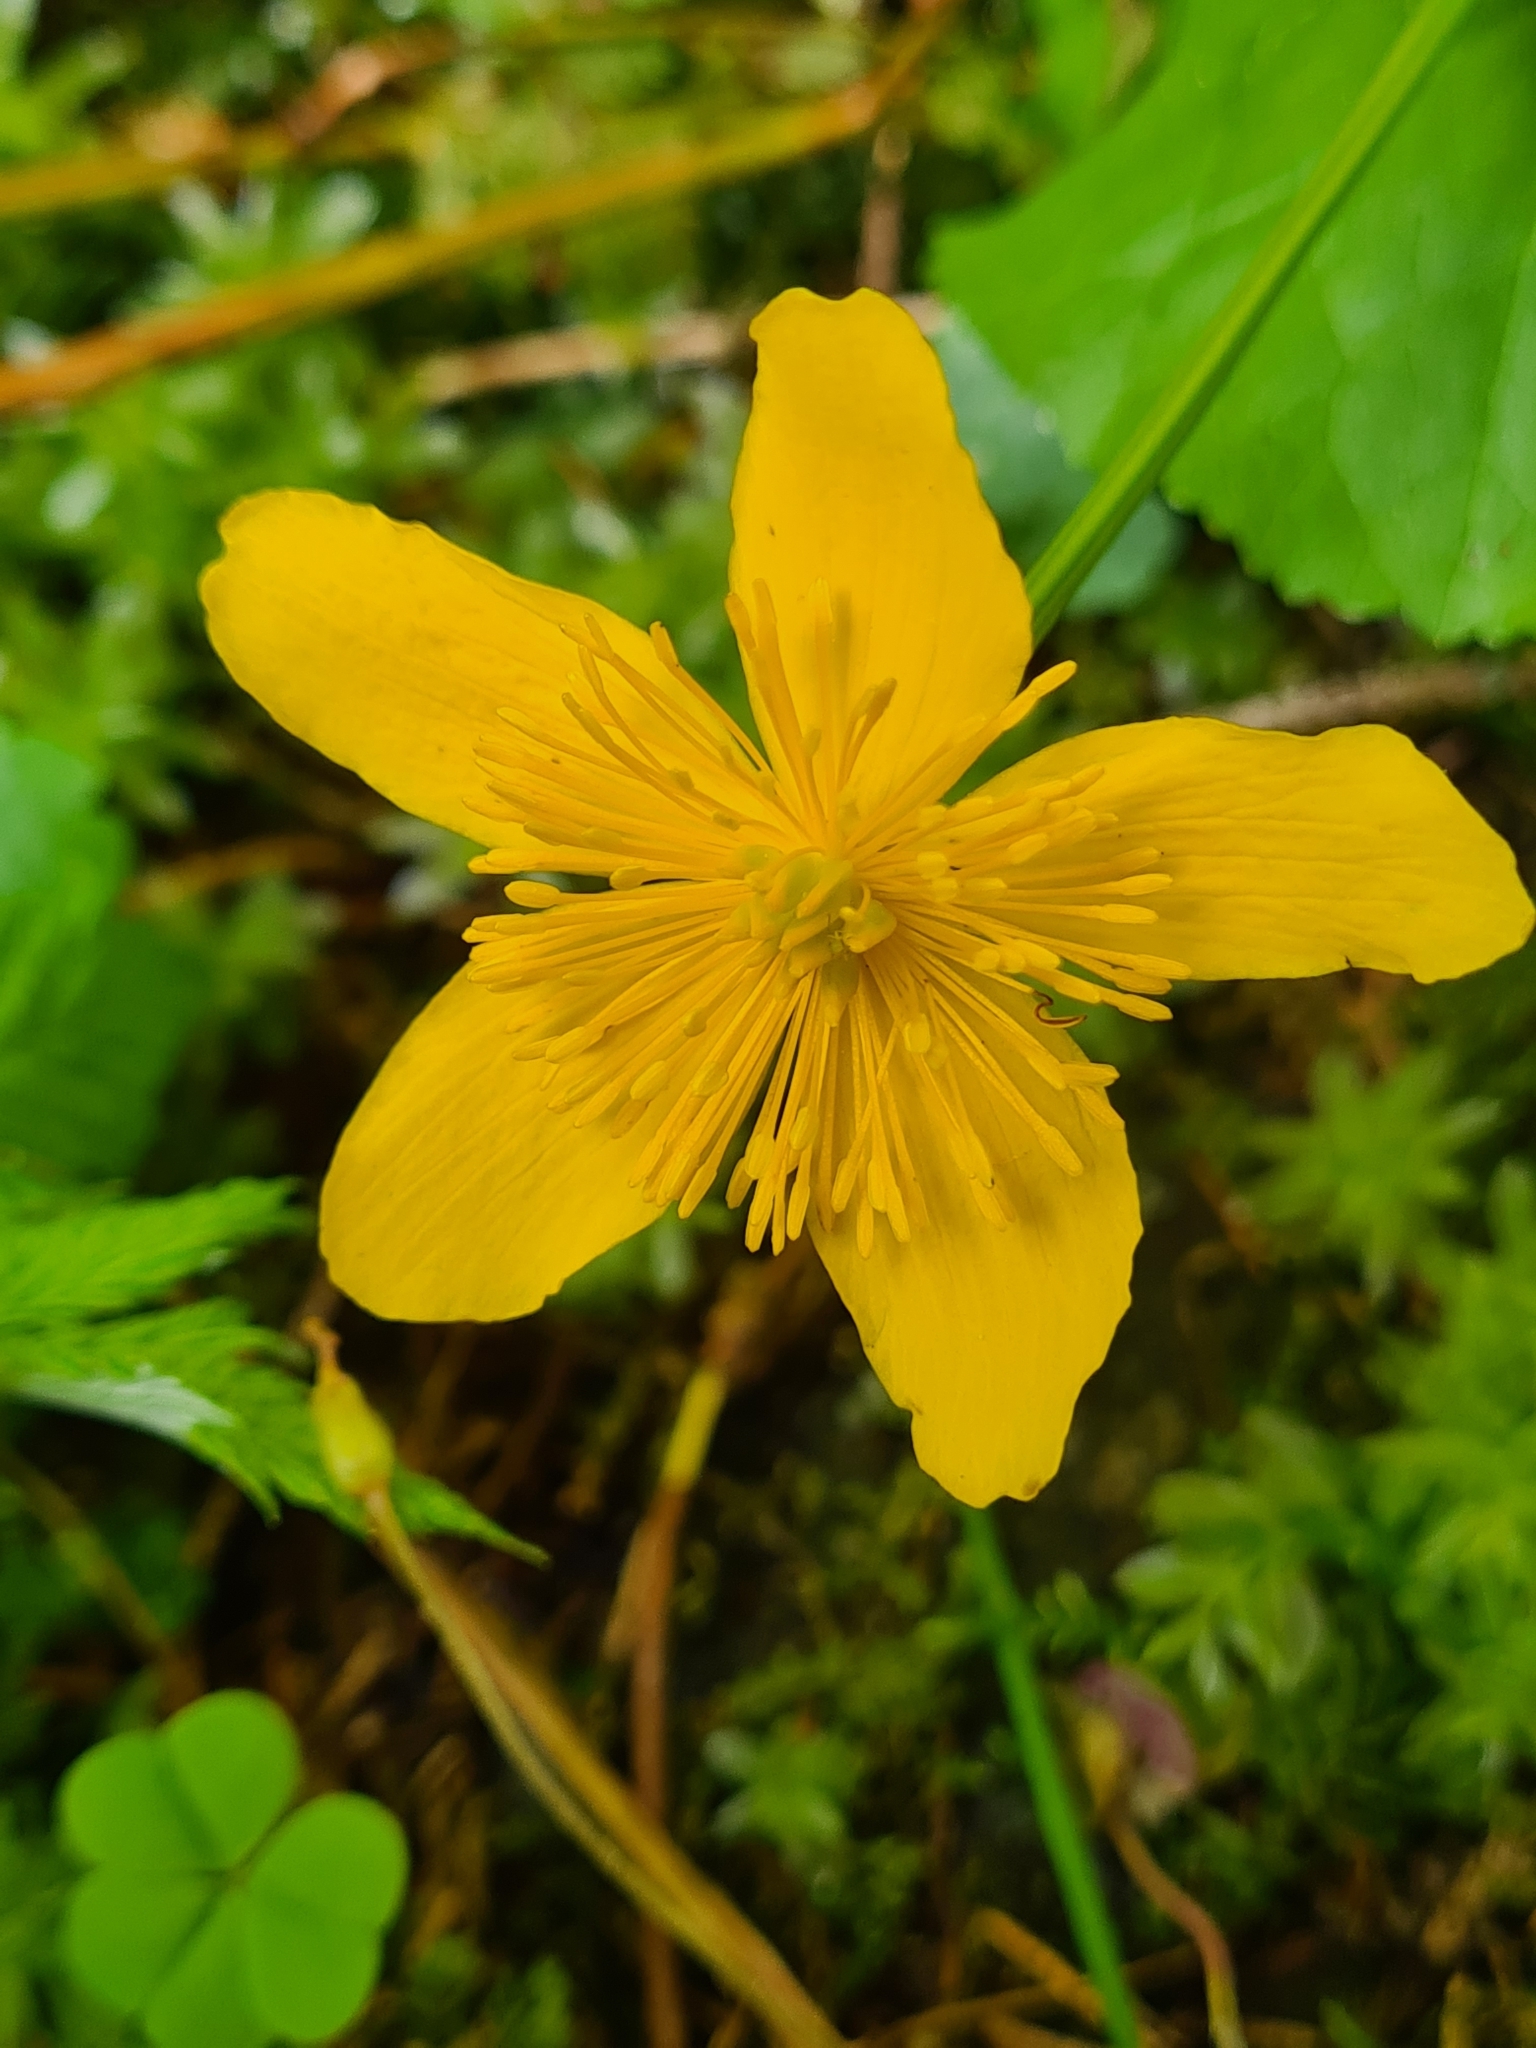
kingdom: Plantae
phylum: Tracheophyta
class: Magnoliopsida
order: Ranunculales
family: Ranunculaceae
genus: Caltha
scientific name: Caltha palustris
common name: Marsh marigold
